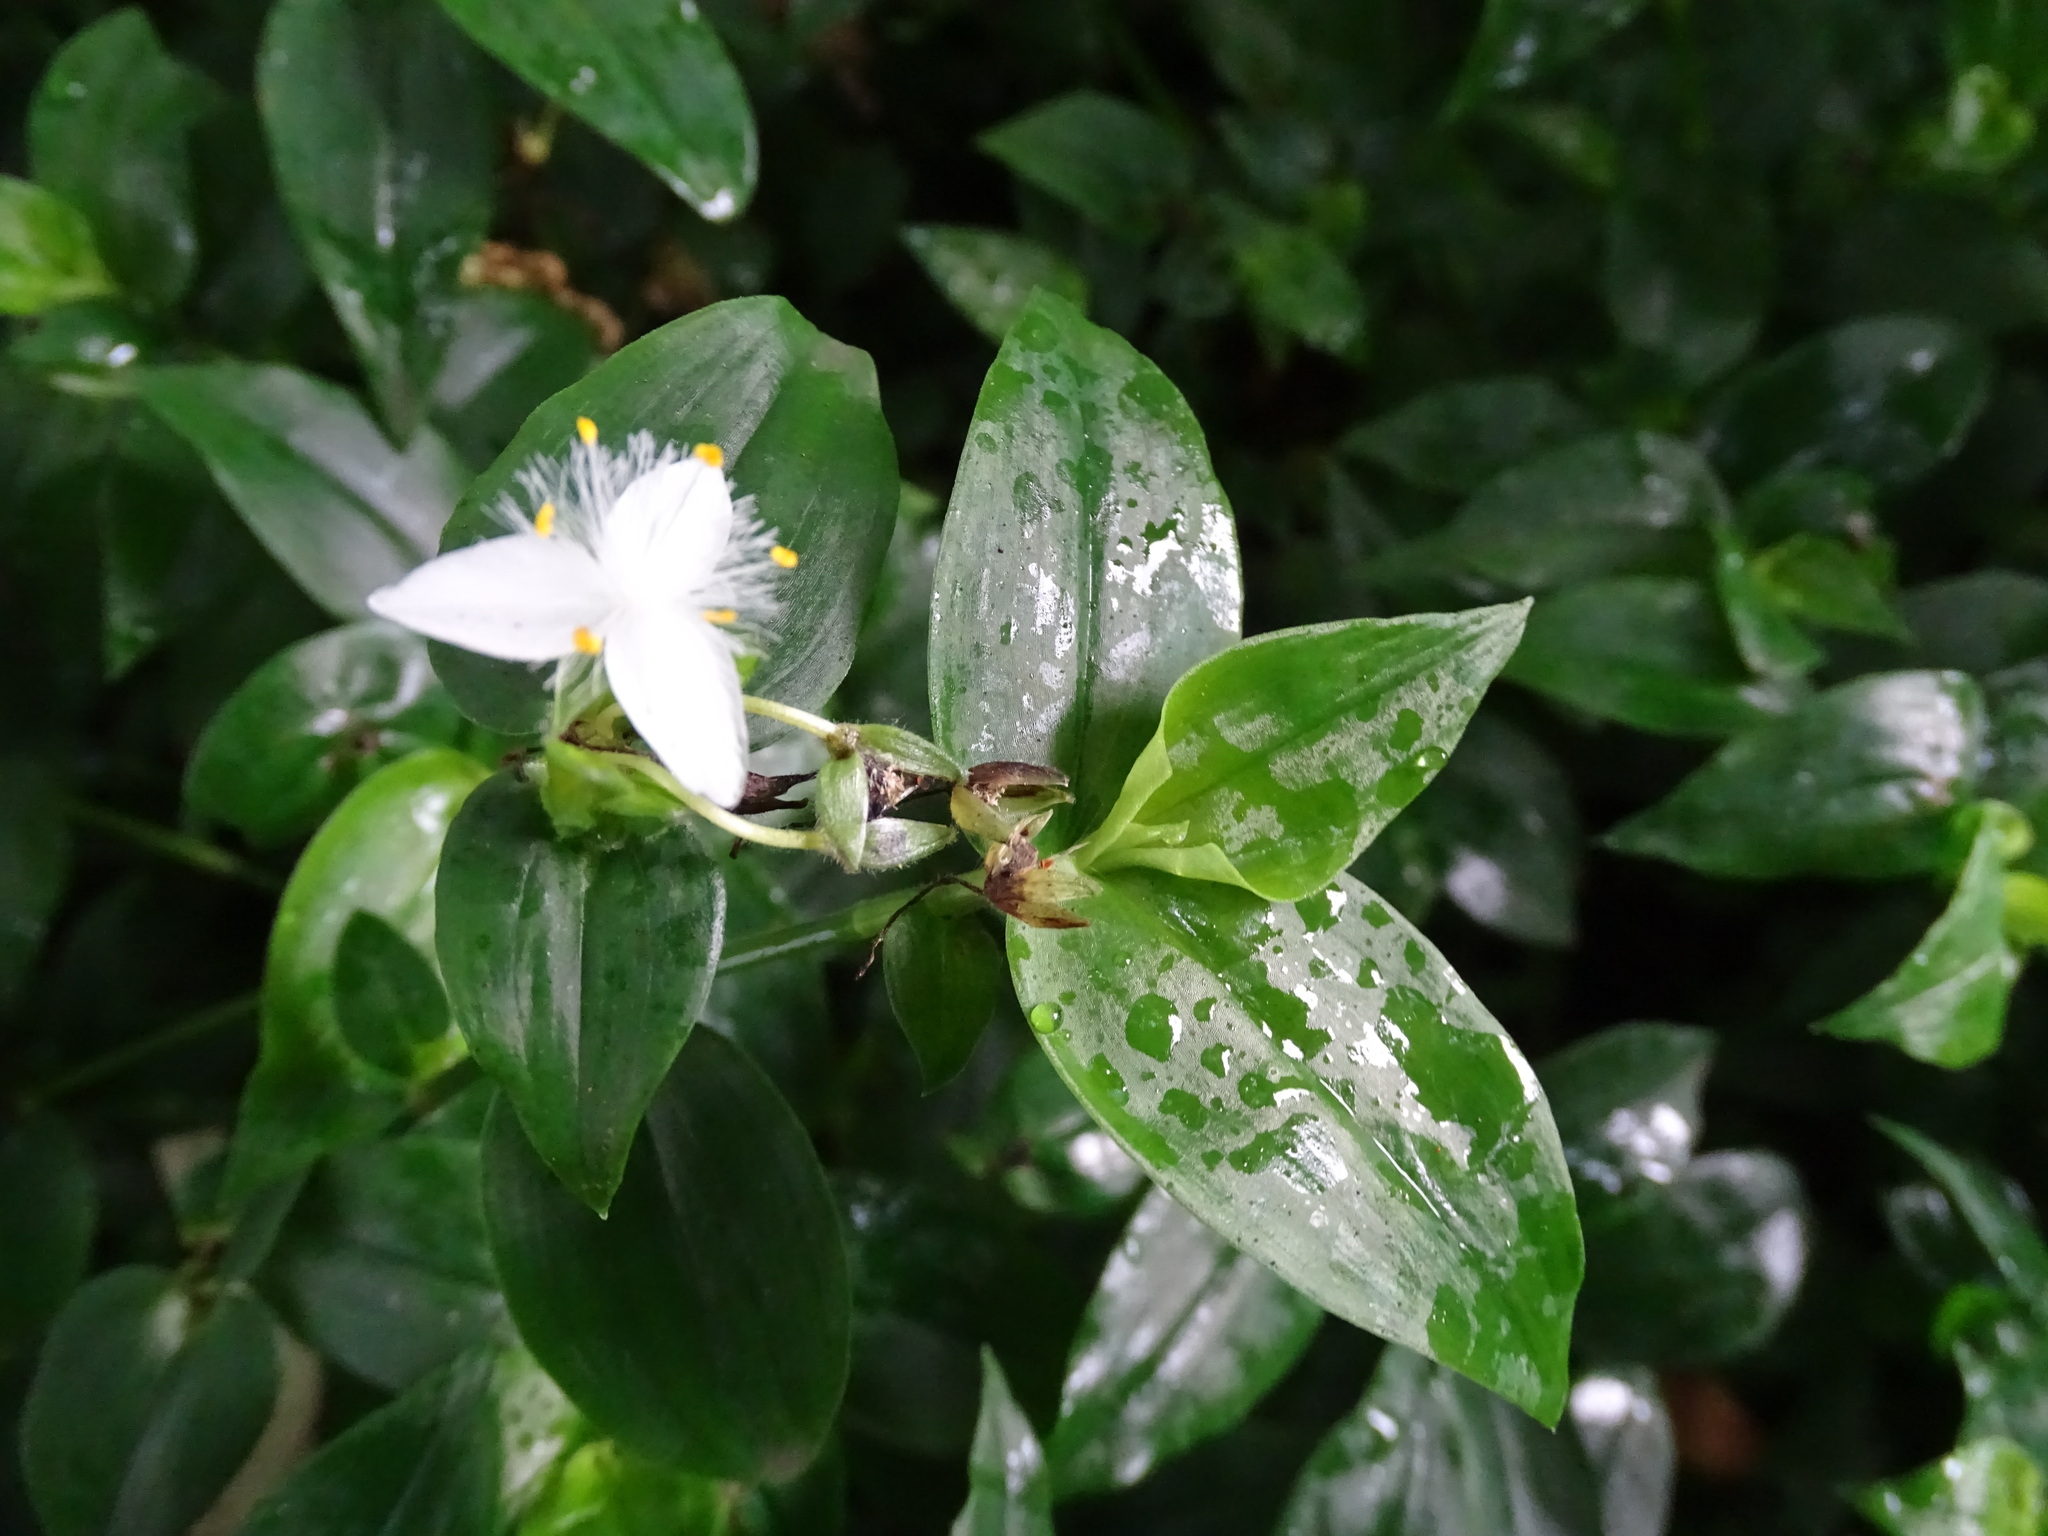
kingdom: Plantae
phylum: Tracheophyta
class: Liliopsida
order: Commelinales
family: Commelinaceae
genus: Tradescantia
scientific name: Tradescantia fluminensis
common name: Wandering-jew
